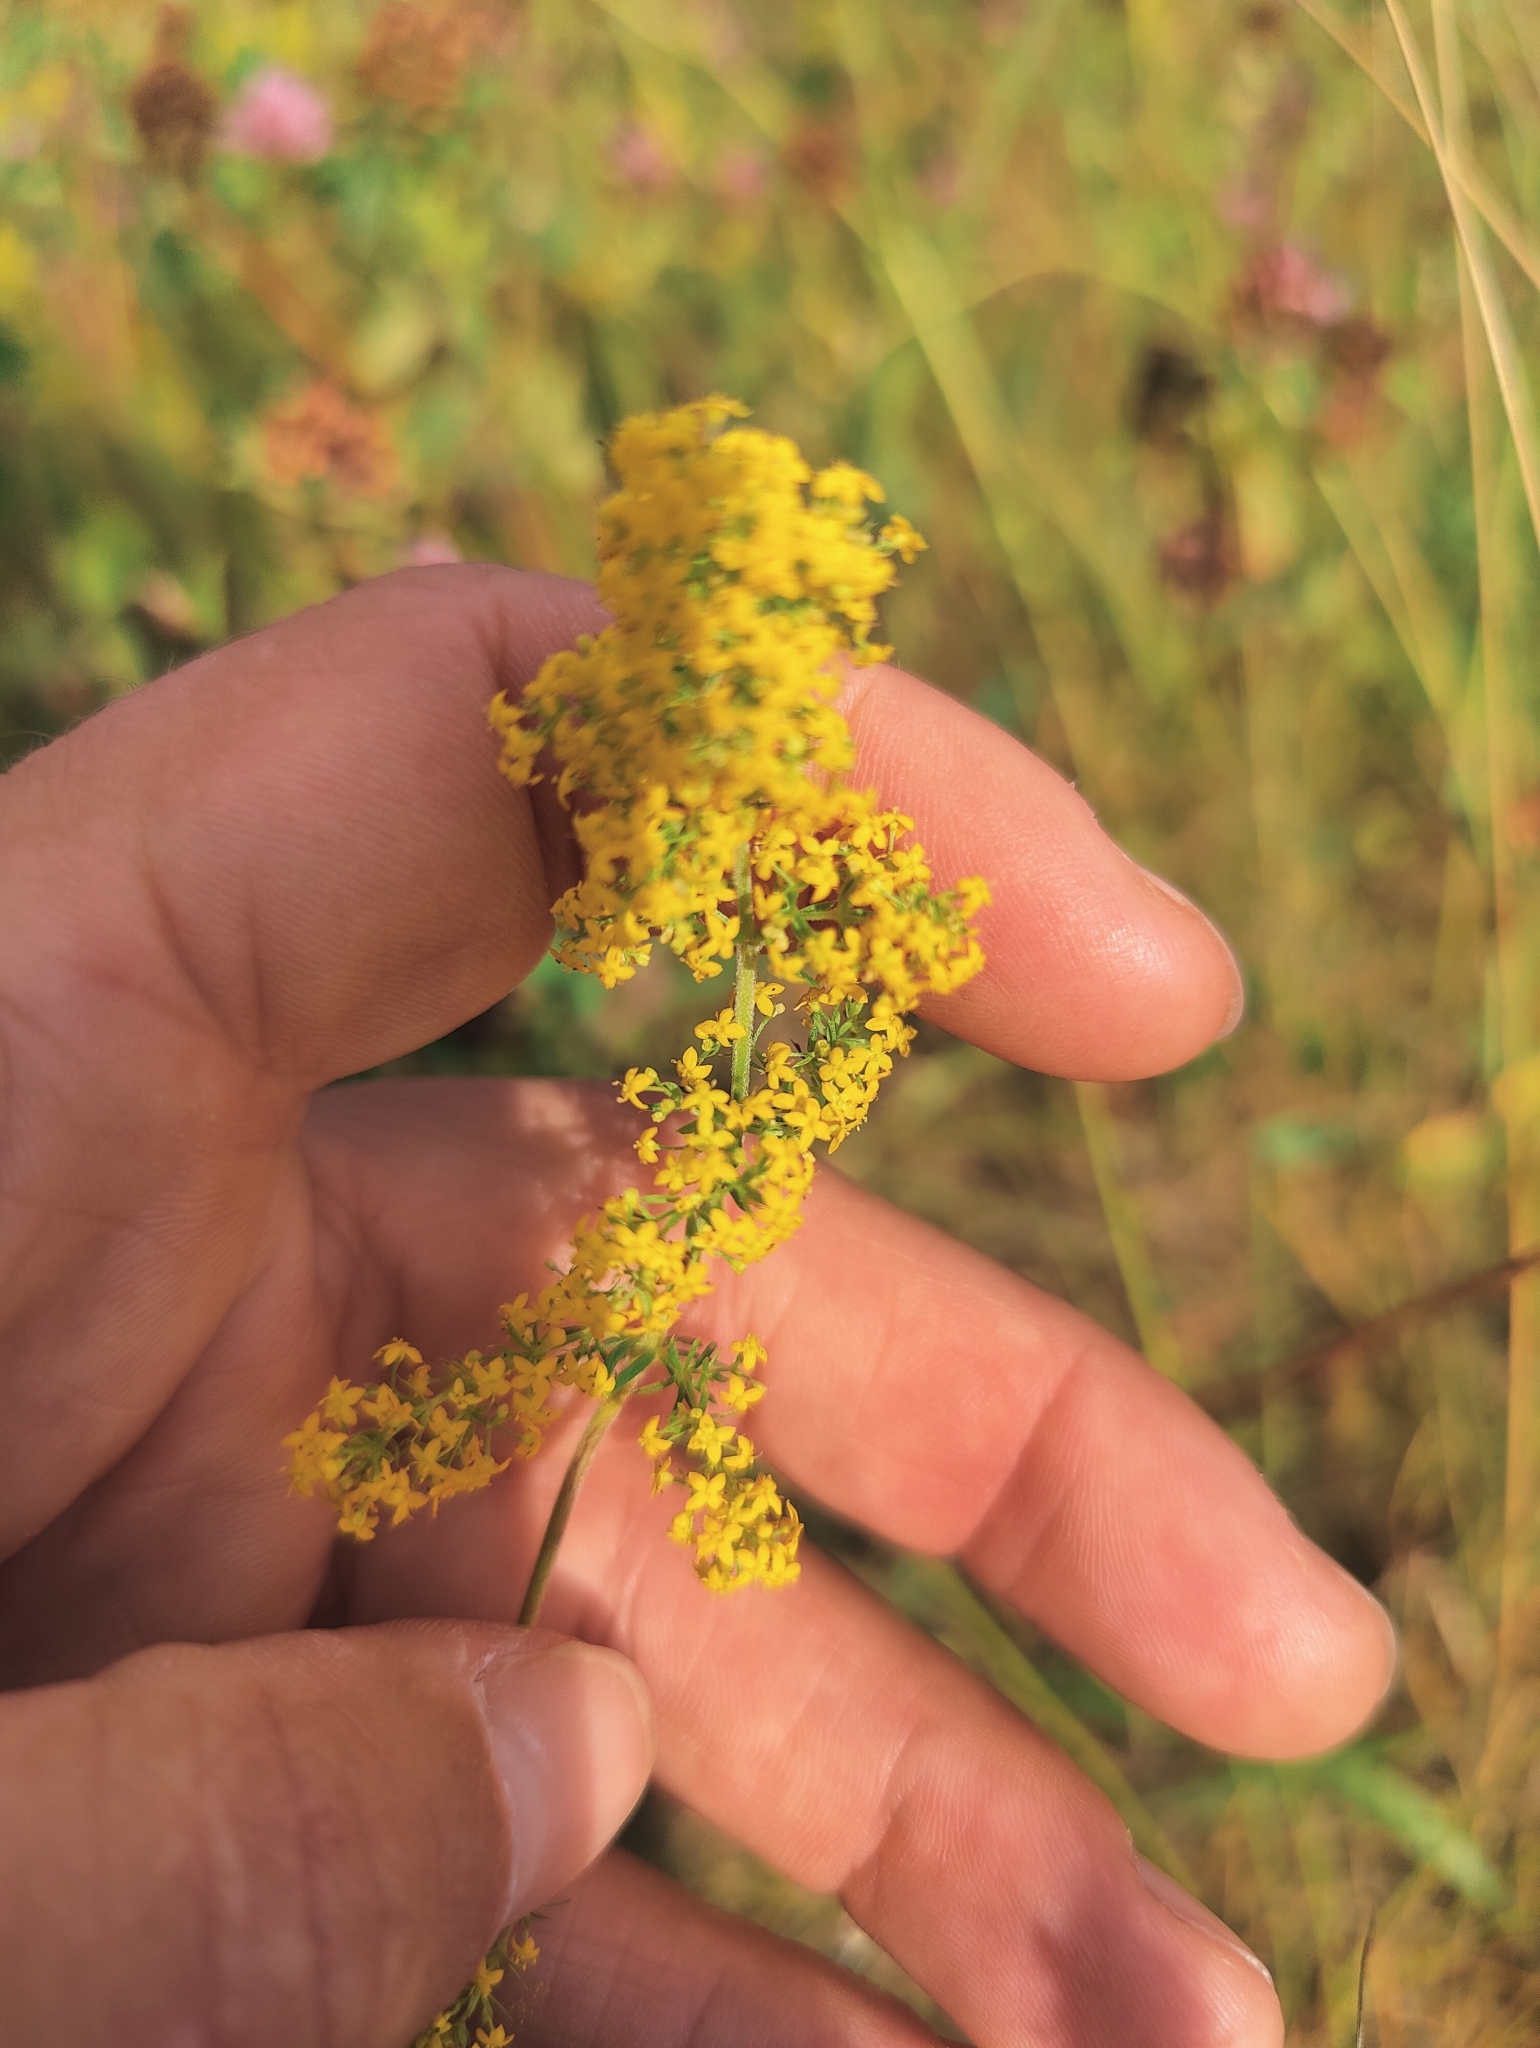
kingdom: Plantae
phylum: Tracheophyta
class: Magnoliopsida
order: Gentianales
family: Rubiaceae
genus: Galium
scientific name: Galium verum
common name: Lady's bedstraw
